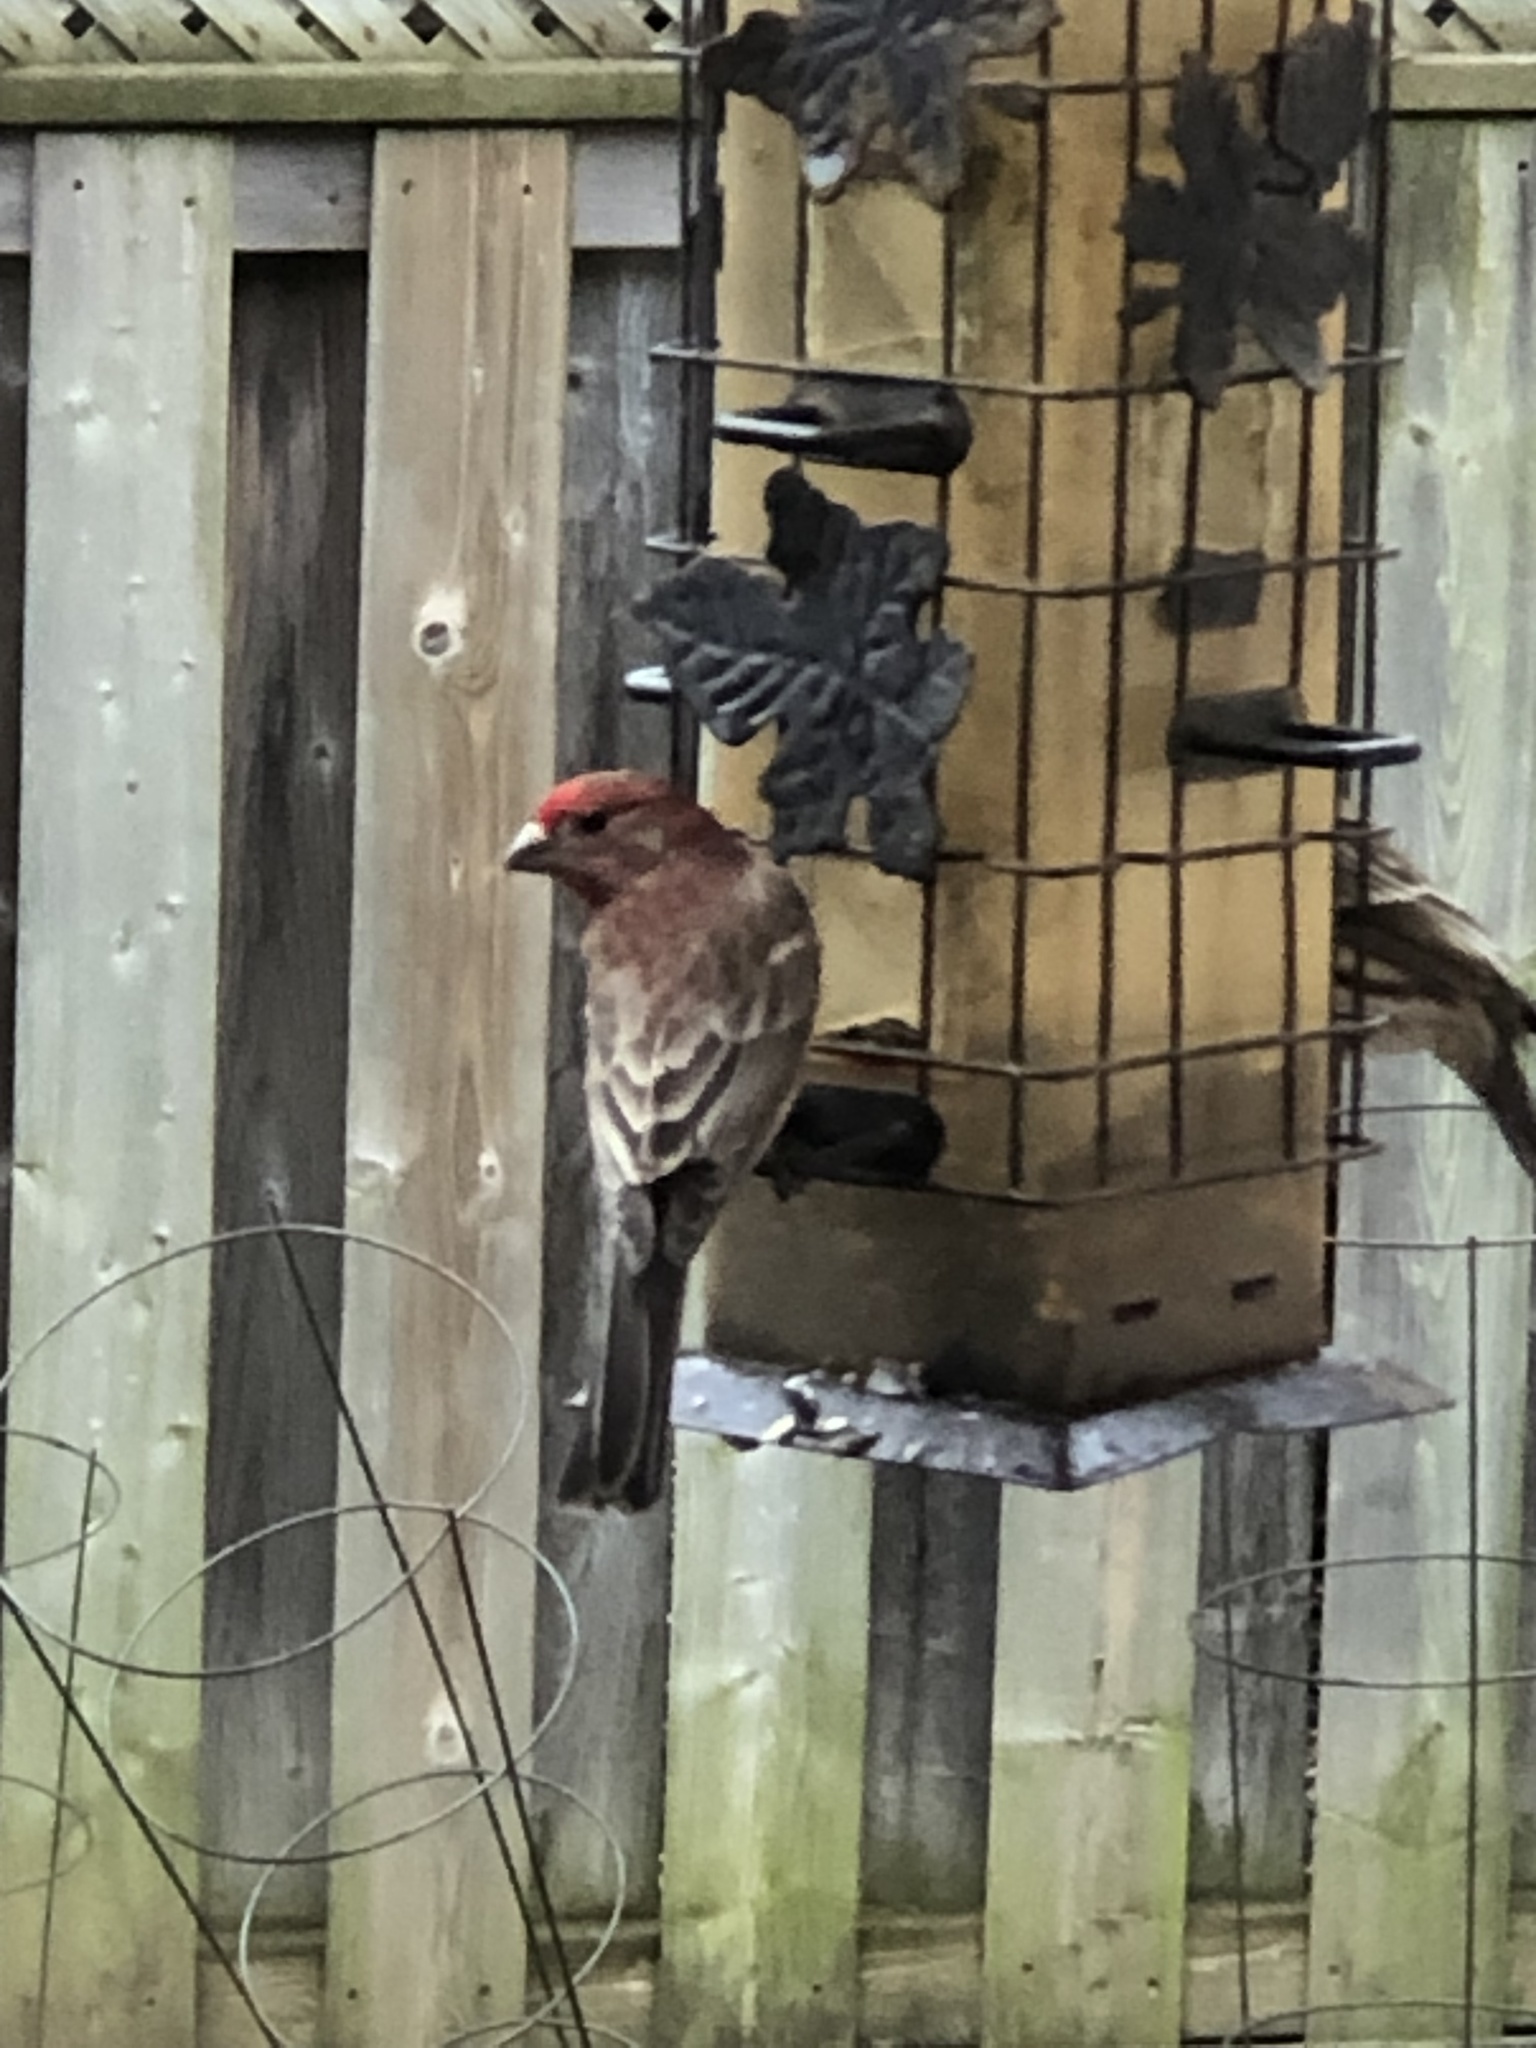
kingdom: Animalia
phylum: Chordata
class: Aves
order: Passeriformes
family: Fringillidae
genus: Haemorhous
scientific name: Haemorhous mexicanus
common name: House finch
